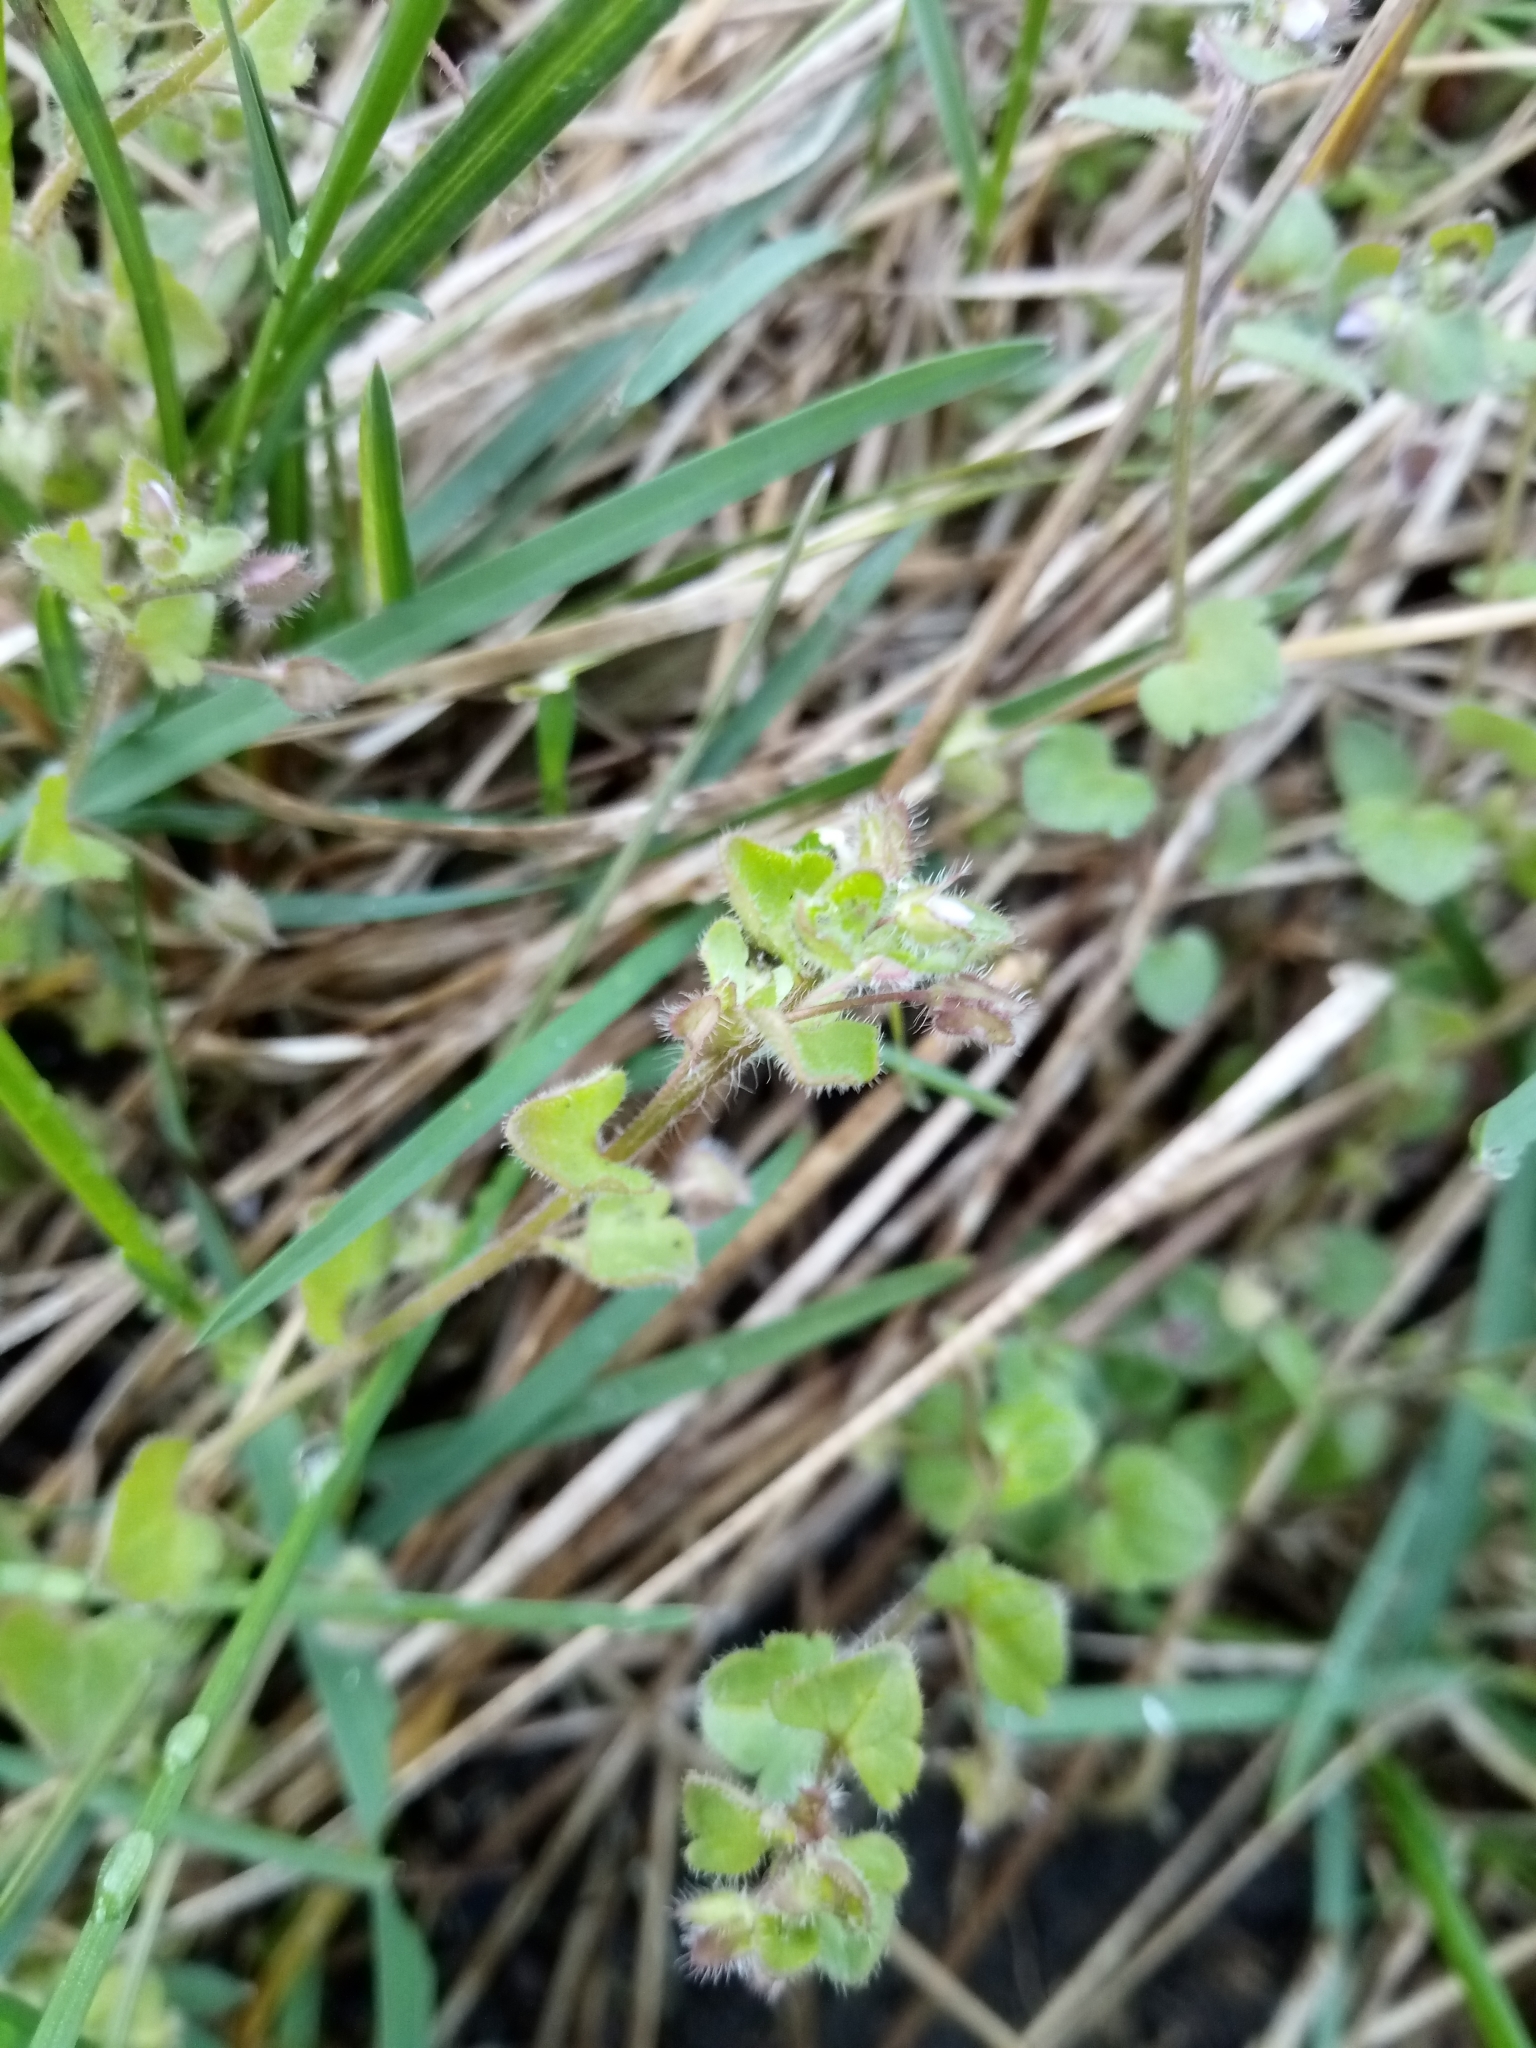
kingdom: Plantae
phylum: Tracheophyta
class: Magnoliopsida
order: Lamiales
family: Plantaginaceae
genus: Veronica
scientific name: Veronica sublobata
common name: False ivy-leaved speedwell
